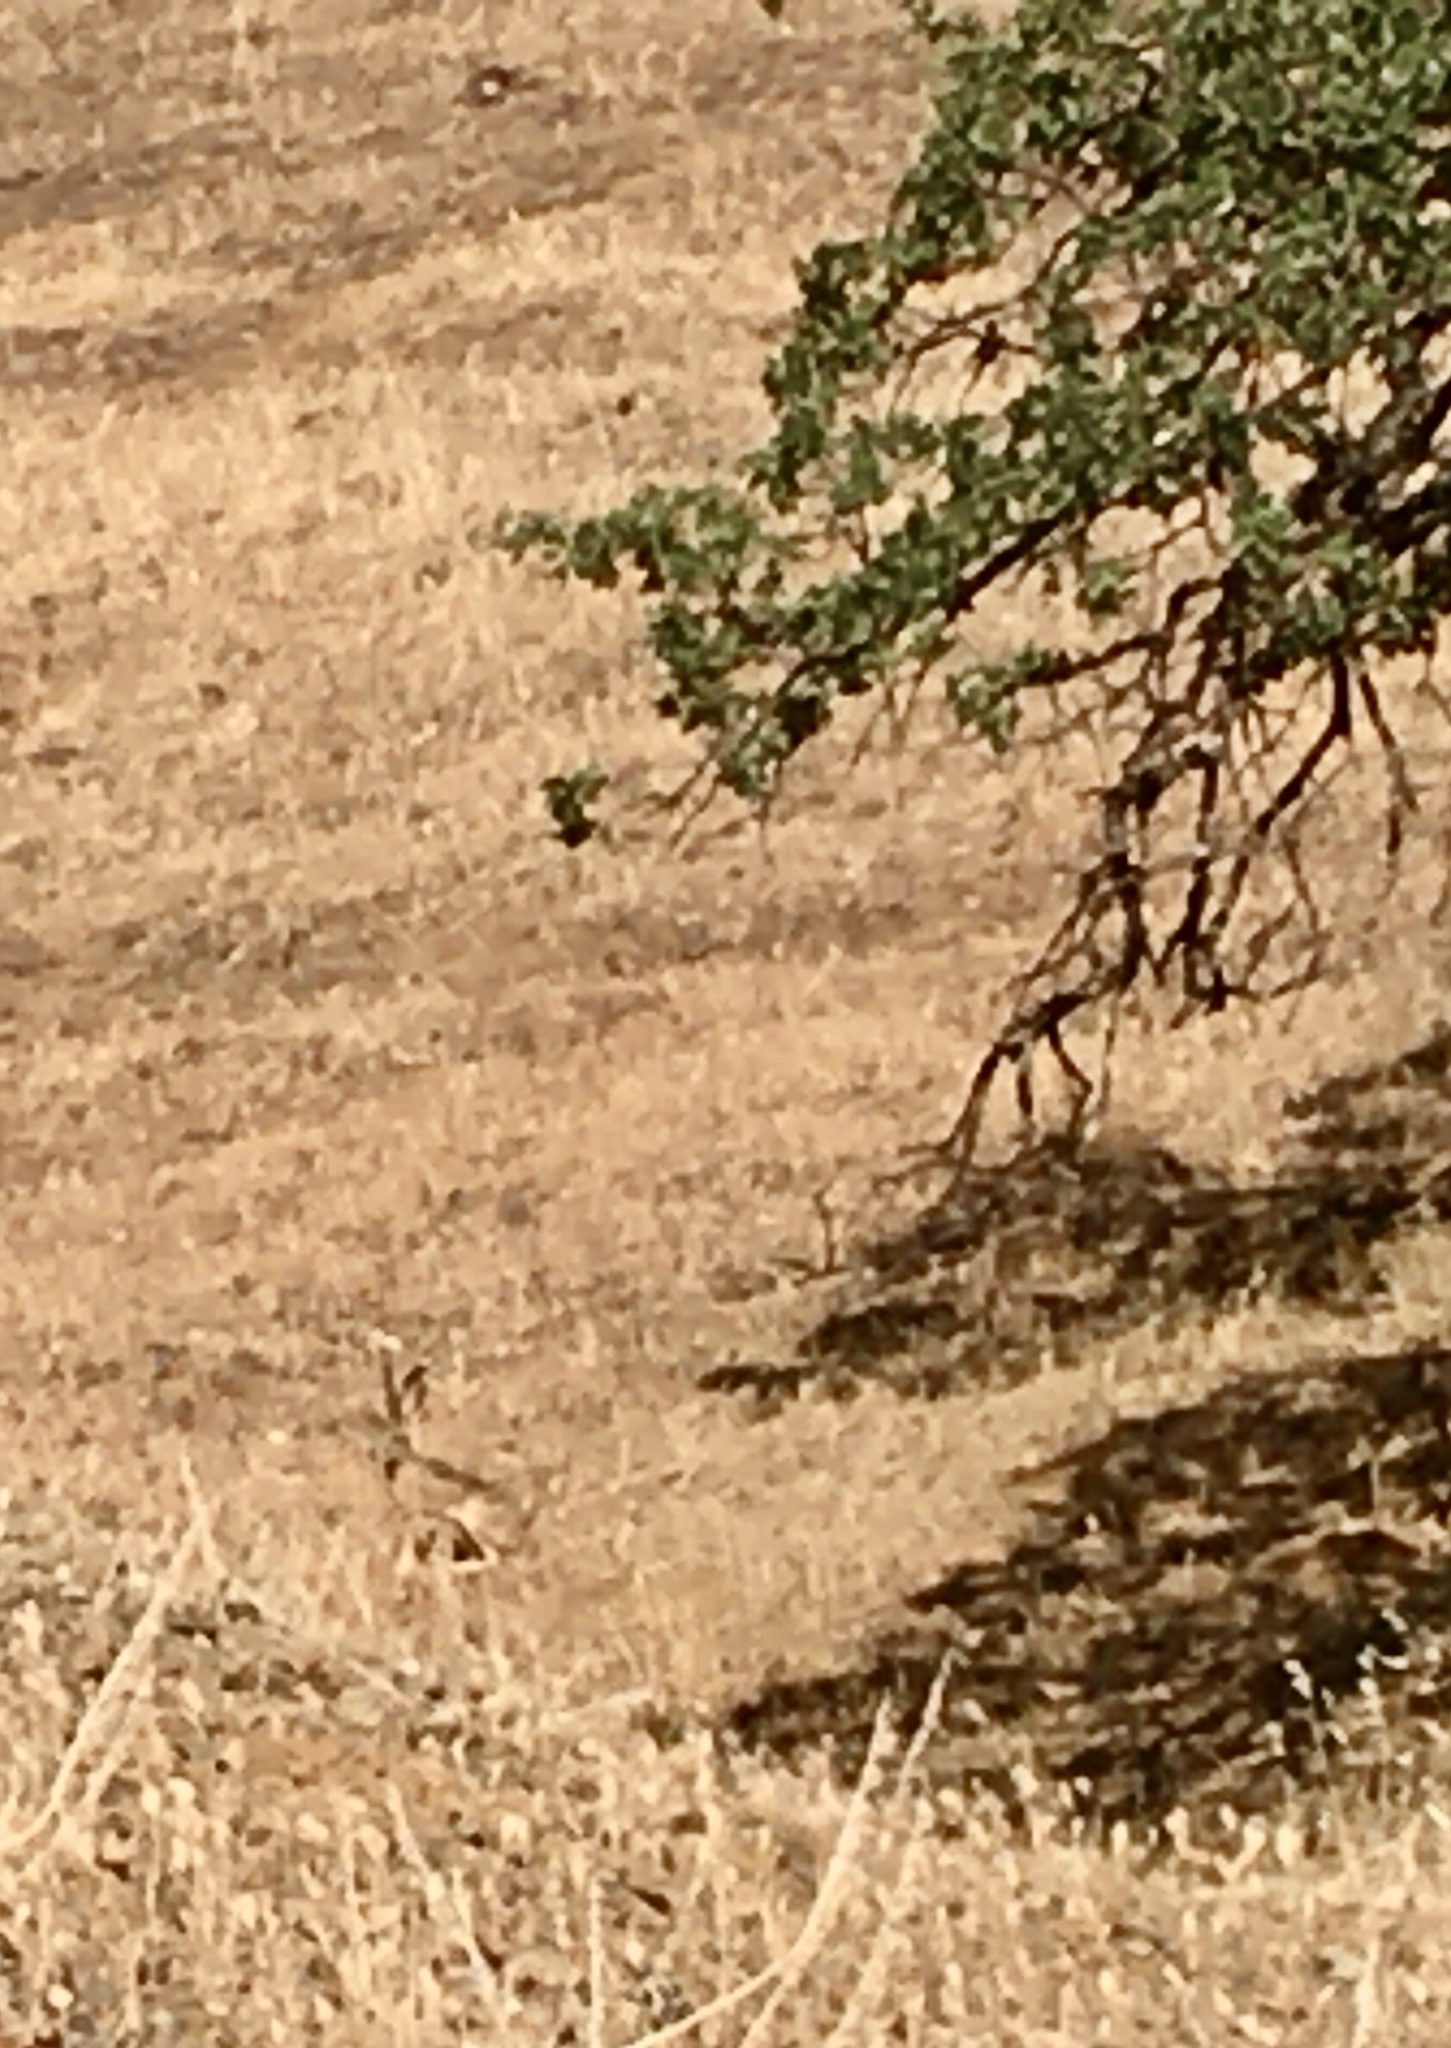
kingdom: Animalia
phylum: Chordata
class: Mammalia
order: Lagomorpha
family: Leporidae
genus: Lepus
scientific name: Lepus californicus
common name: Black-tailed jackrabbit
